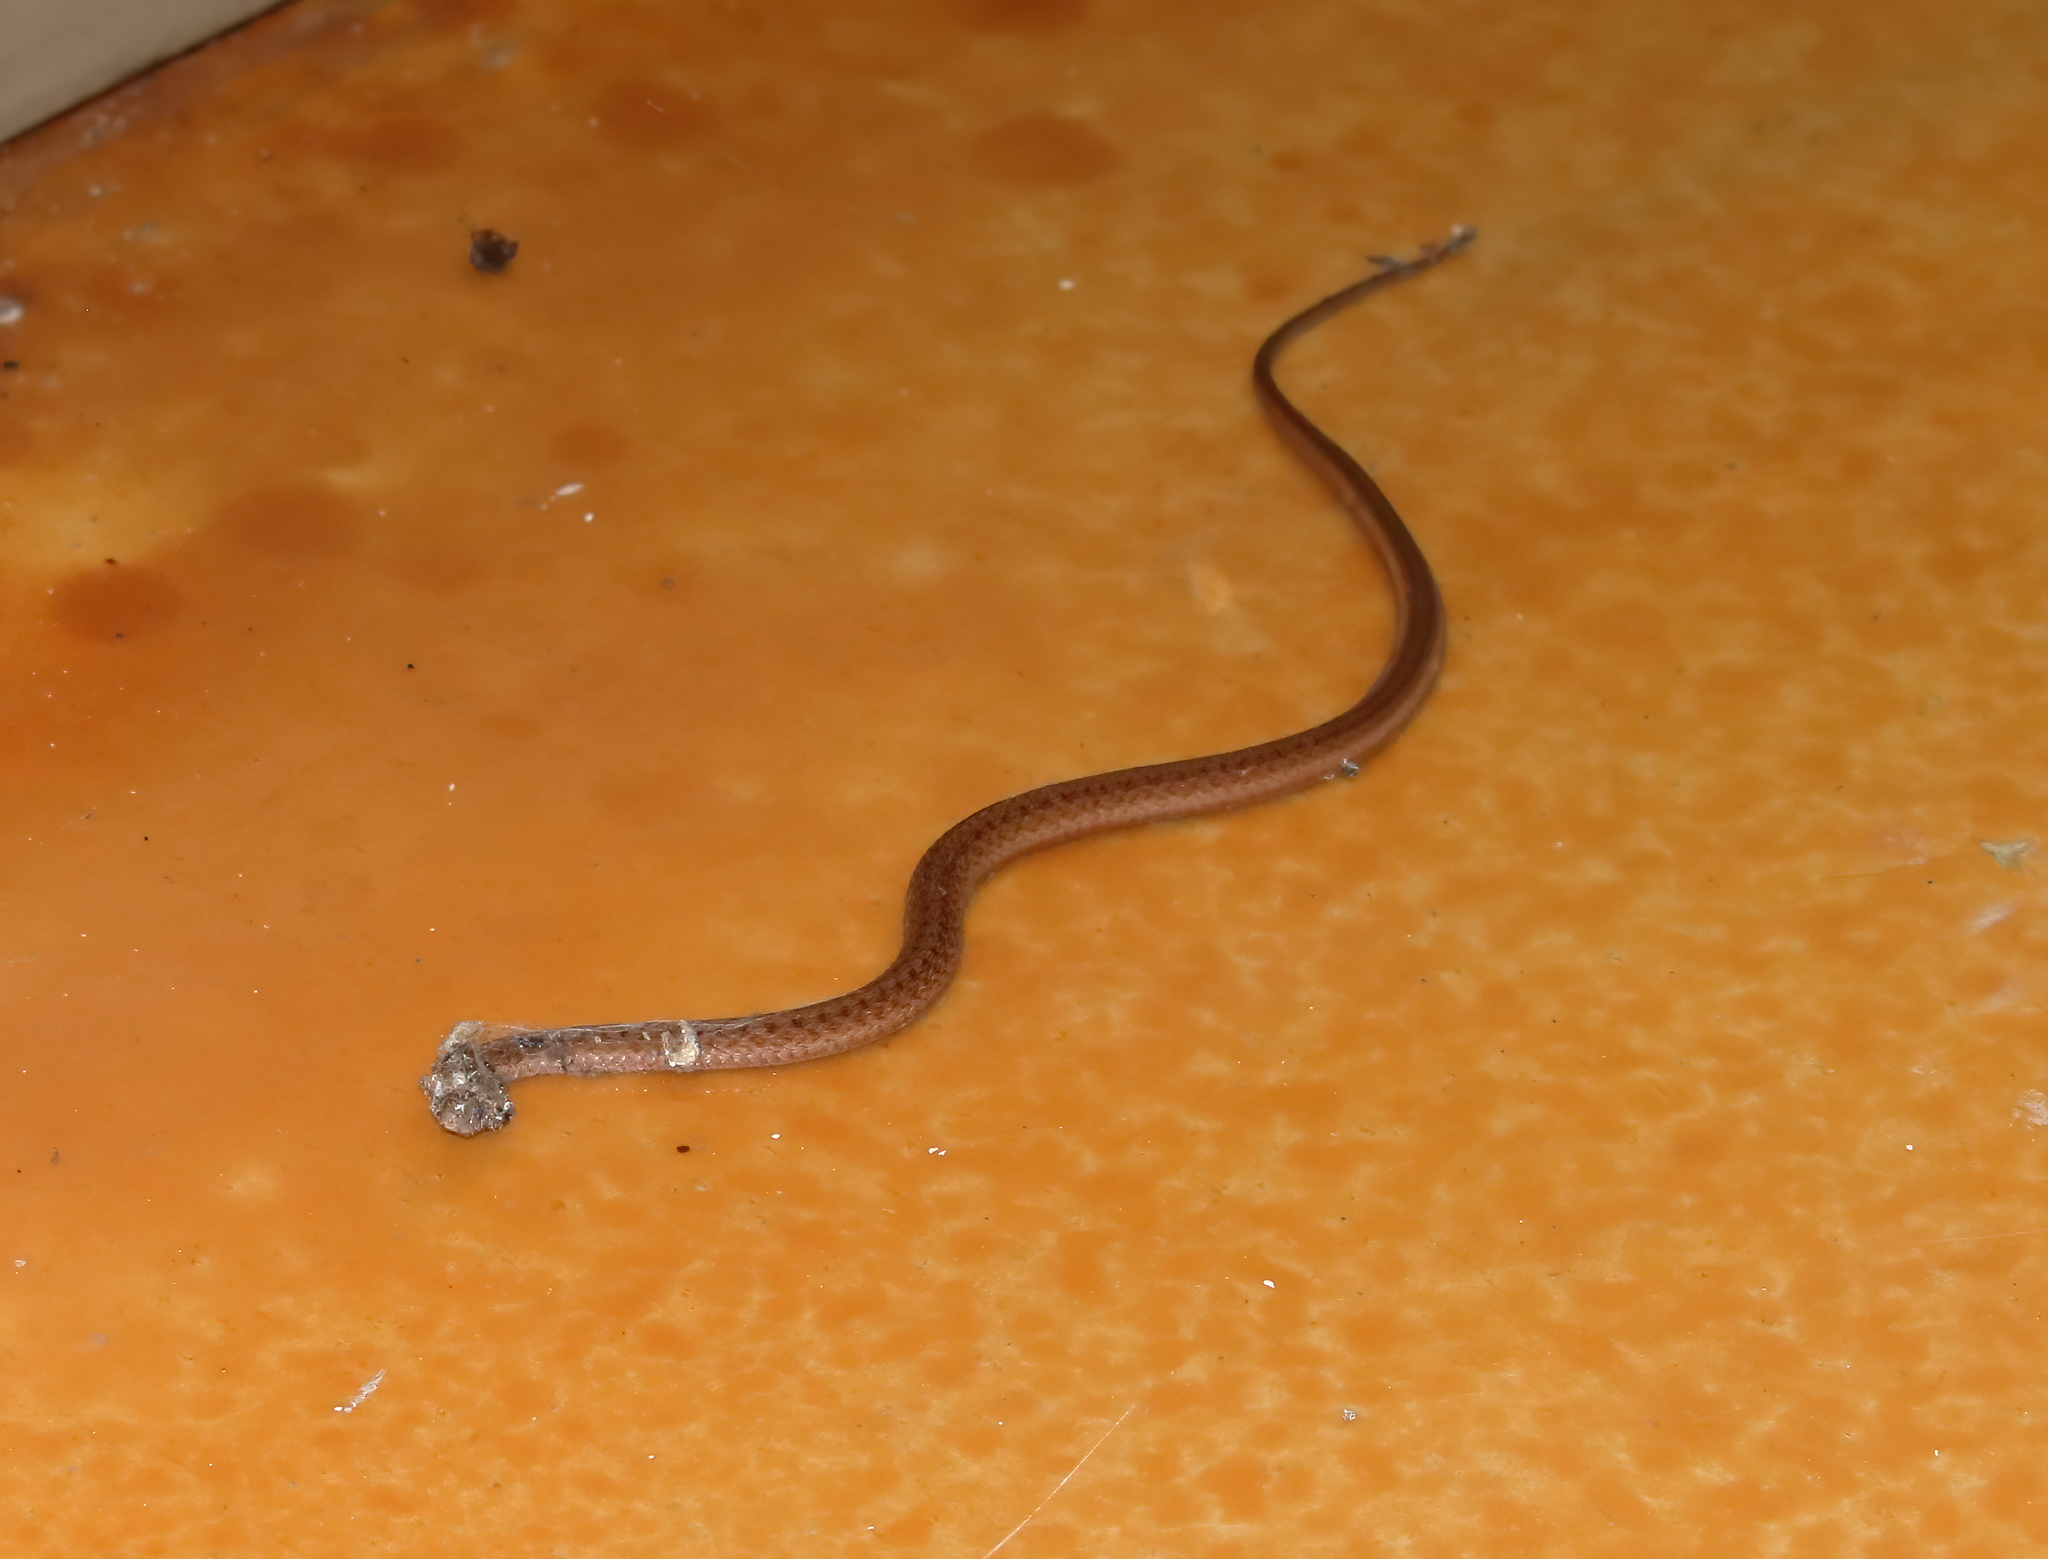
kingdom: Animalia
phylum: Chordata
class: Squamata
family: Colubridae
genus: Storeria
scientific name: Storeria dekayi
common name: (dekay’s) brown snake
